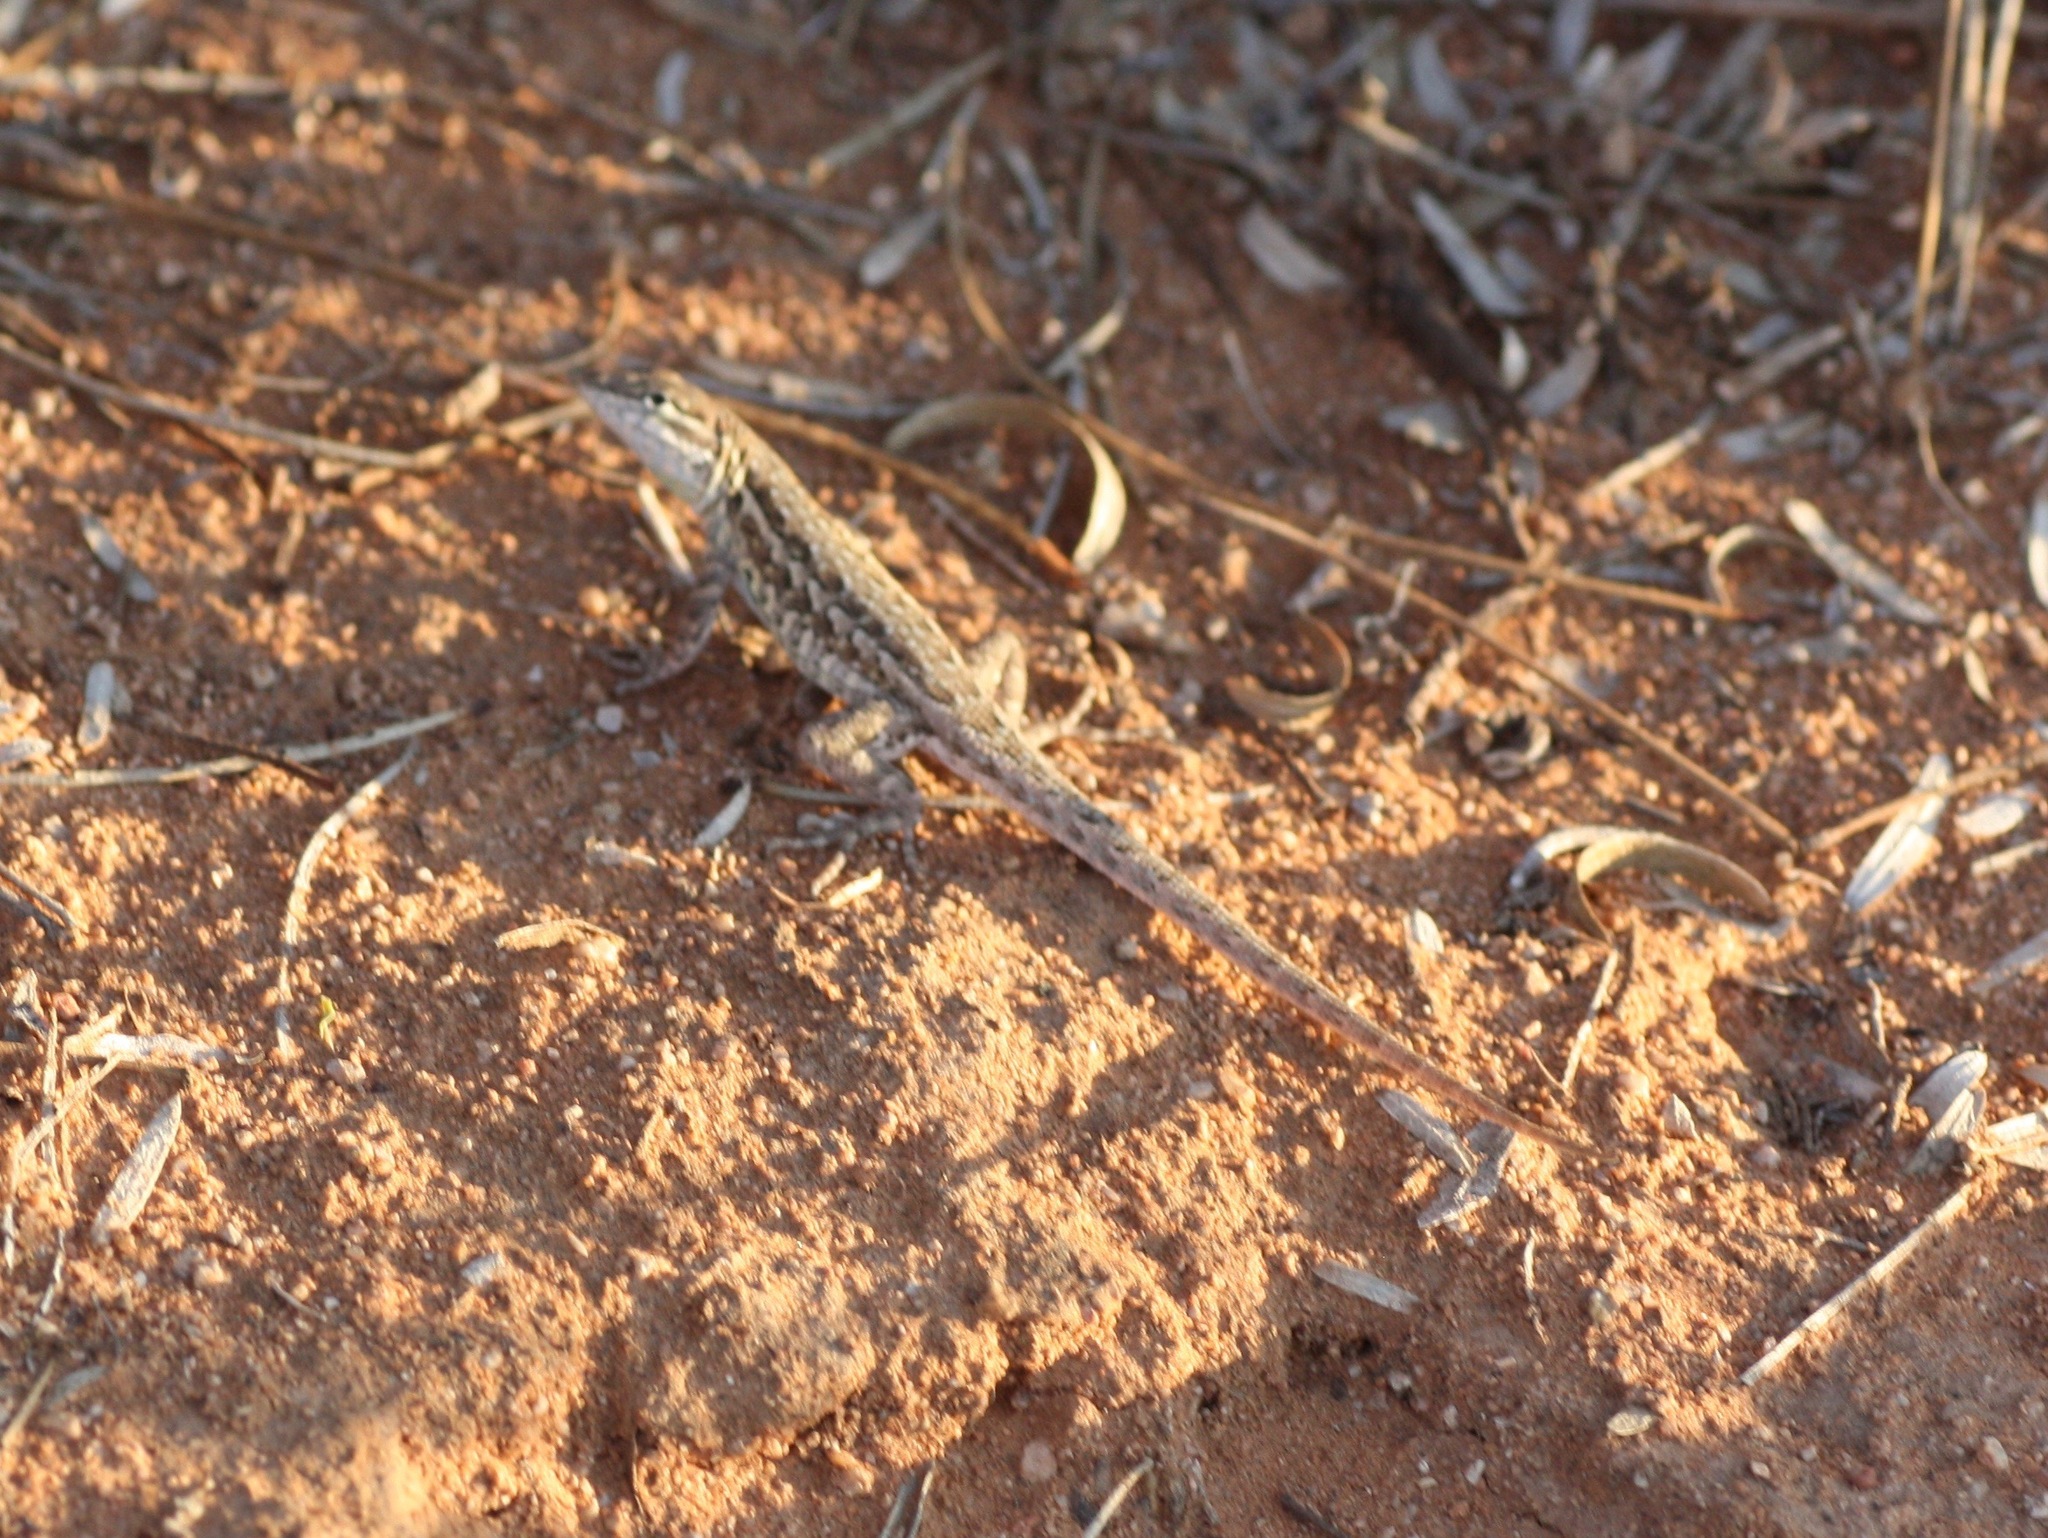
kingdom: Animalia
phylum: Chordata
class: Squamata
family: Phrynosomatidae
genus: Uta
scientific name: Uta stansburiana
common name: Side-blotched lizard
